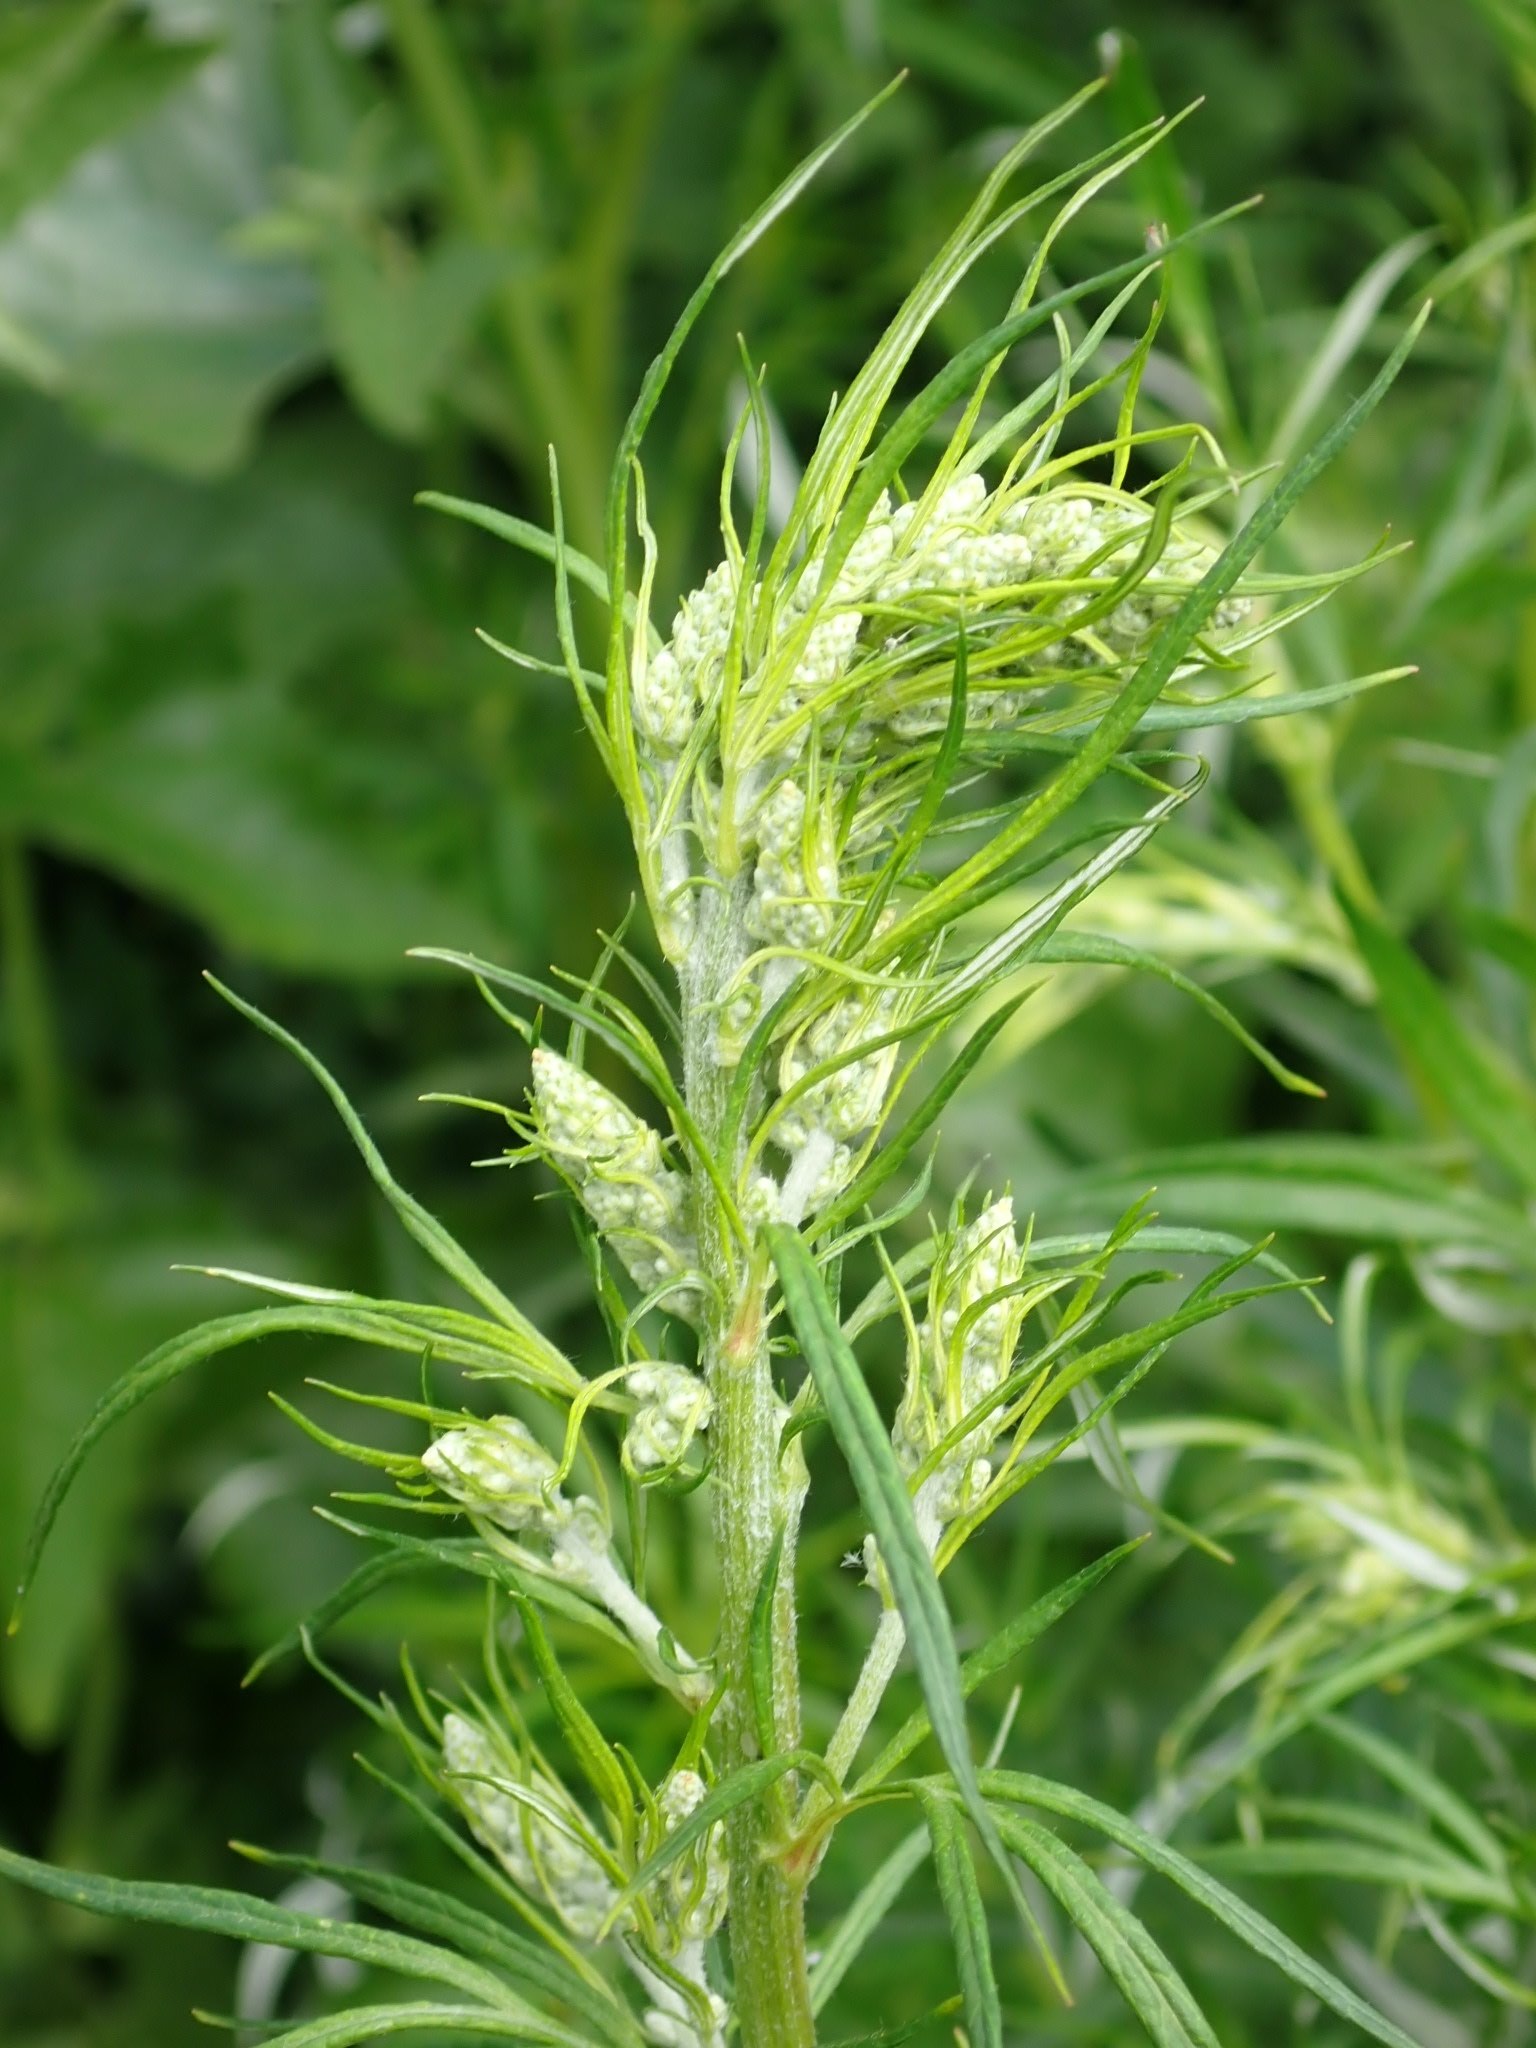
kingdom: Plantae
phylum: Tracheophyta
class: Magnoliopsida
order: Asterales
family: Asteraceae
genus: Artemisia
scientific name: Artemisia vulgaris
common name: Mugwort
